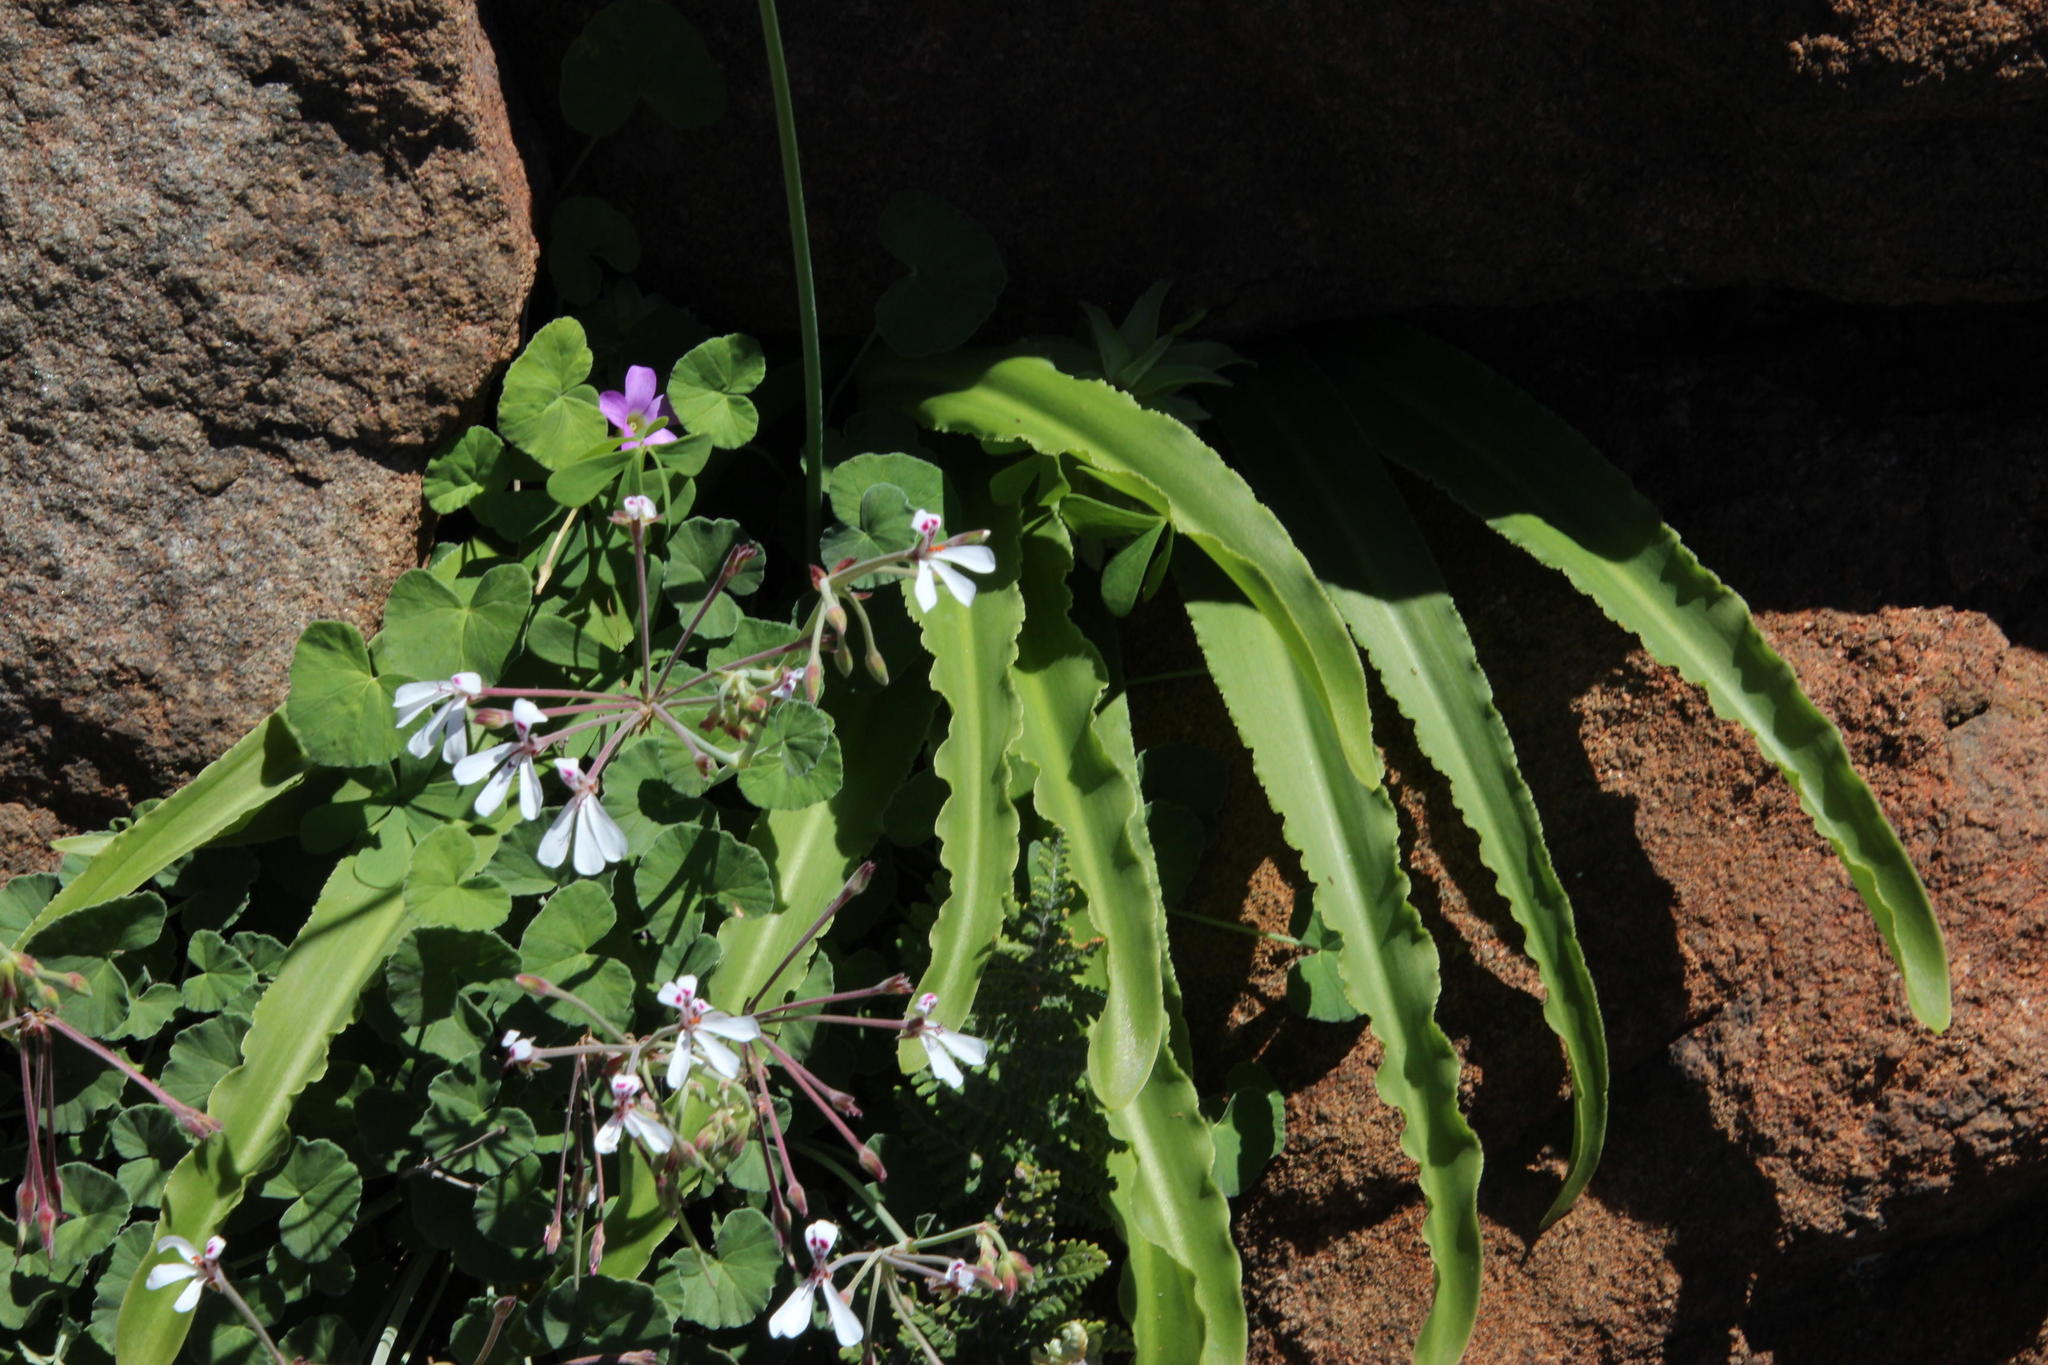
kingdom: Plantae
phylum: Tracheophyta
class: Magnoliopsida
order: Geraniales
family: Geraniaceae
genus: Pelargonium
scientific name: Pelargonium dichondrifolium
